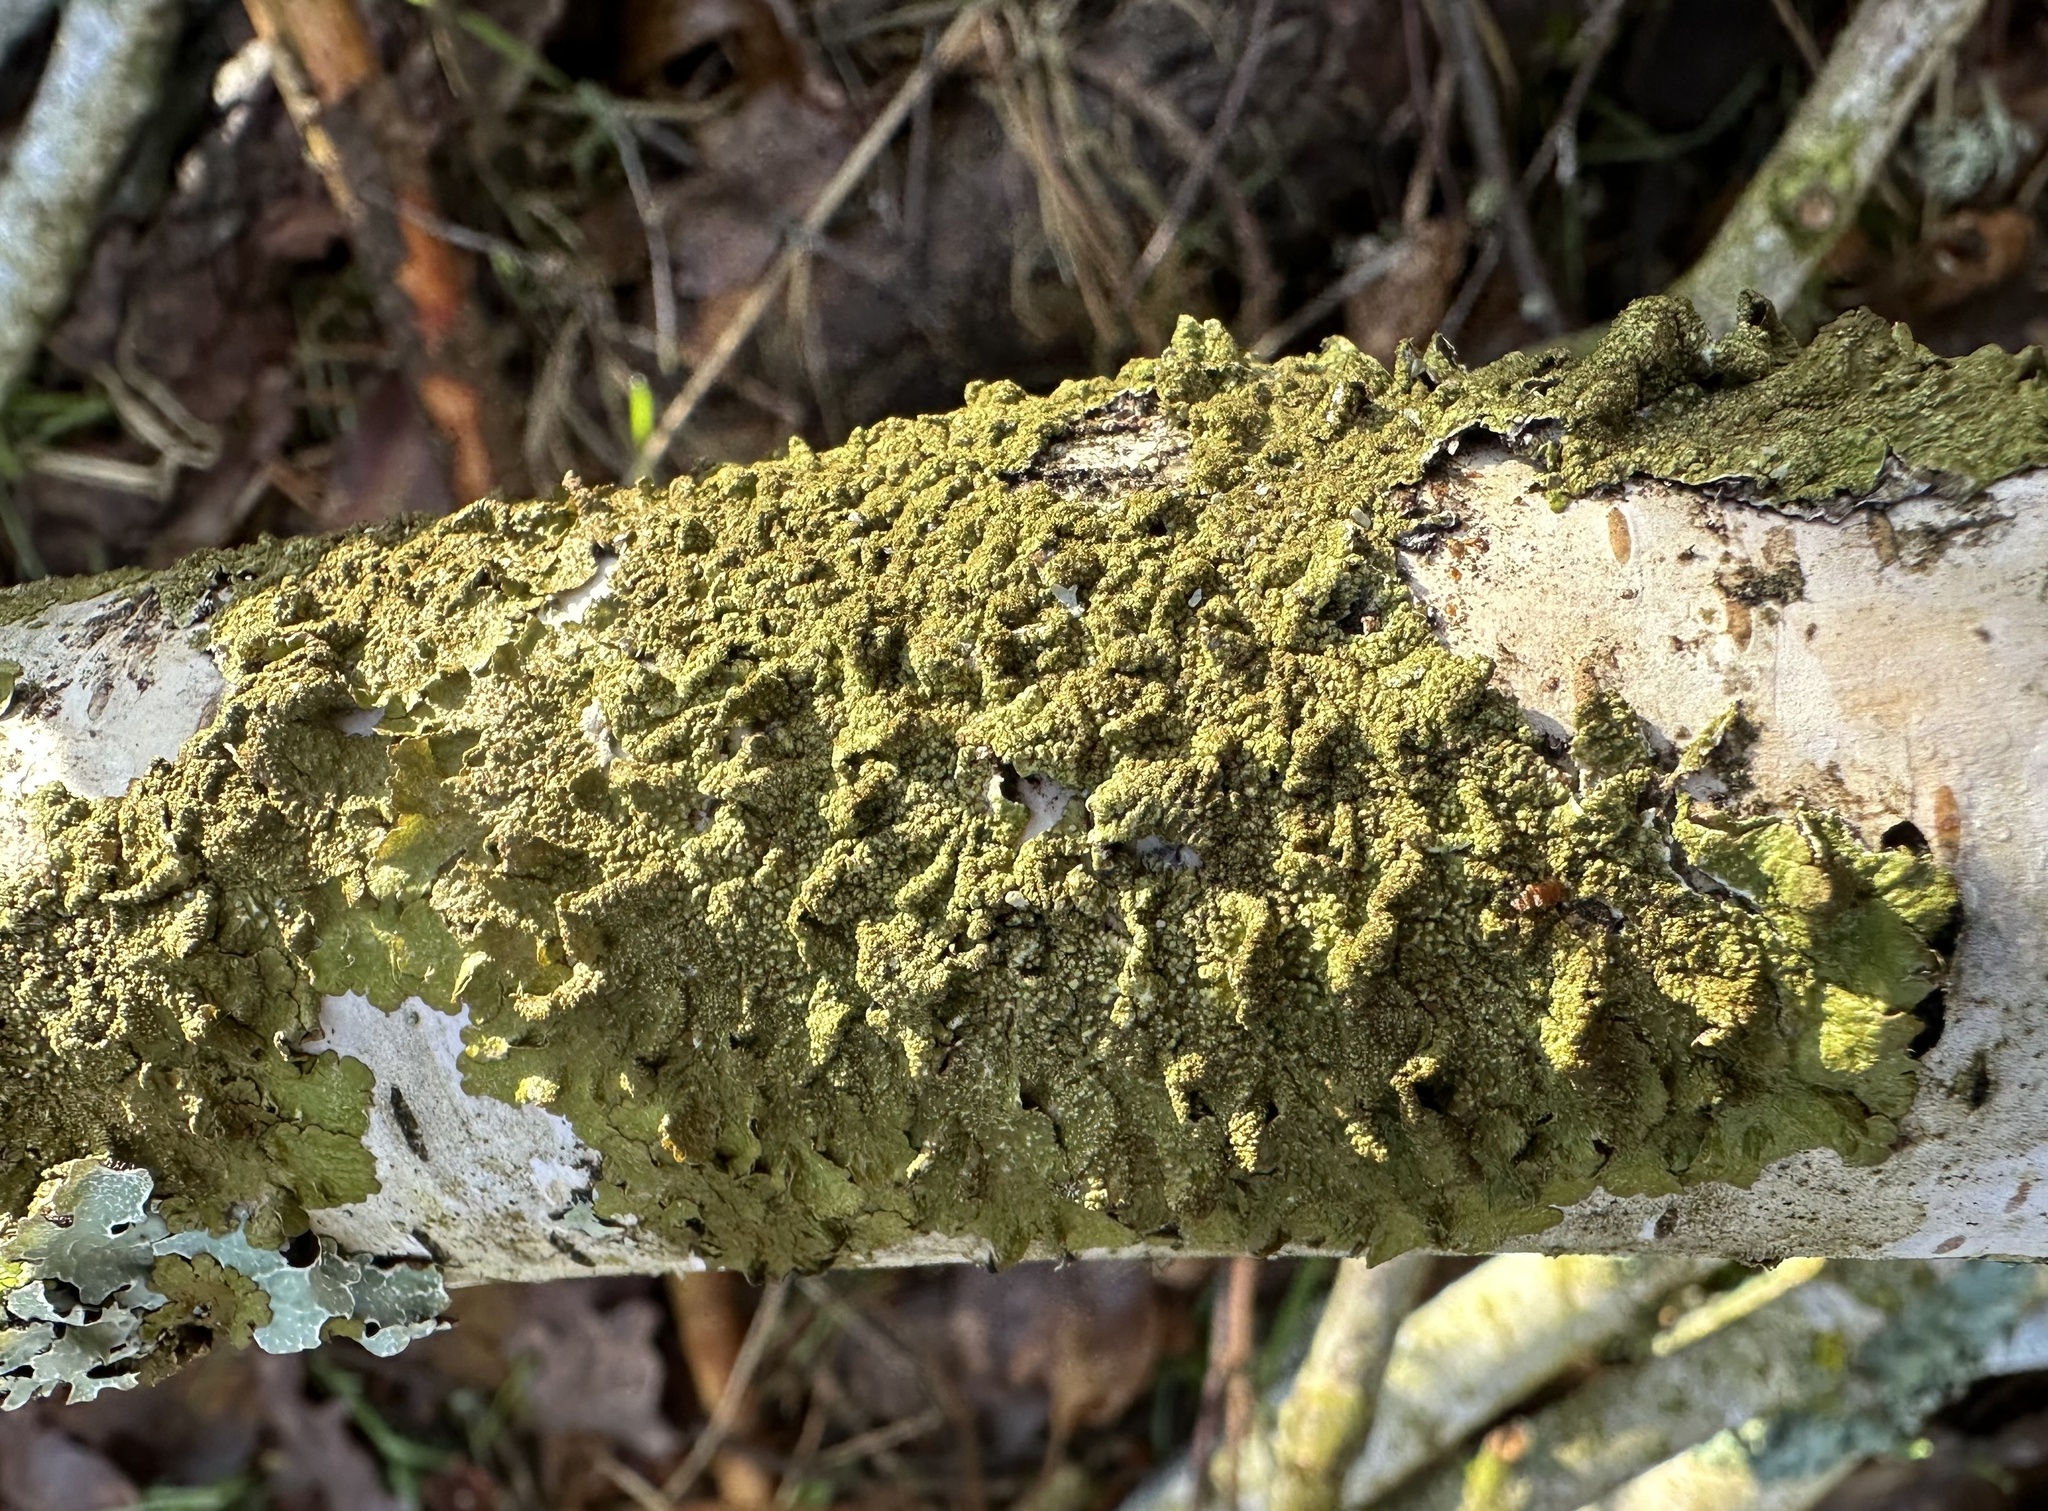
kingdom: Fungi
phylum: Ascomycota
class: Lecanoromycetes
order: Lecanorales
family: Parmeliaceae
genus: Melanelixia
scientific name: Melanelixia subaurifera
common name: Abraded camouflage lichen
